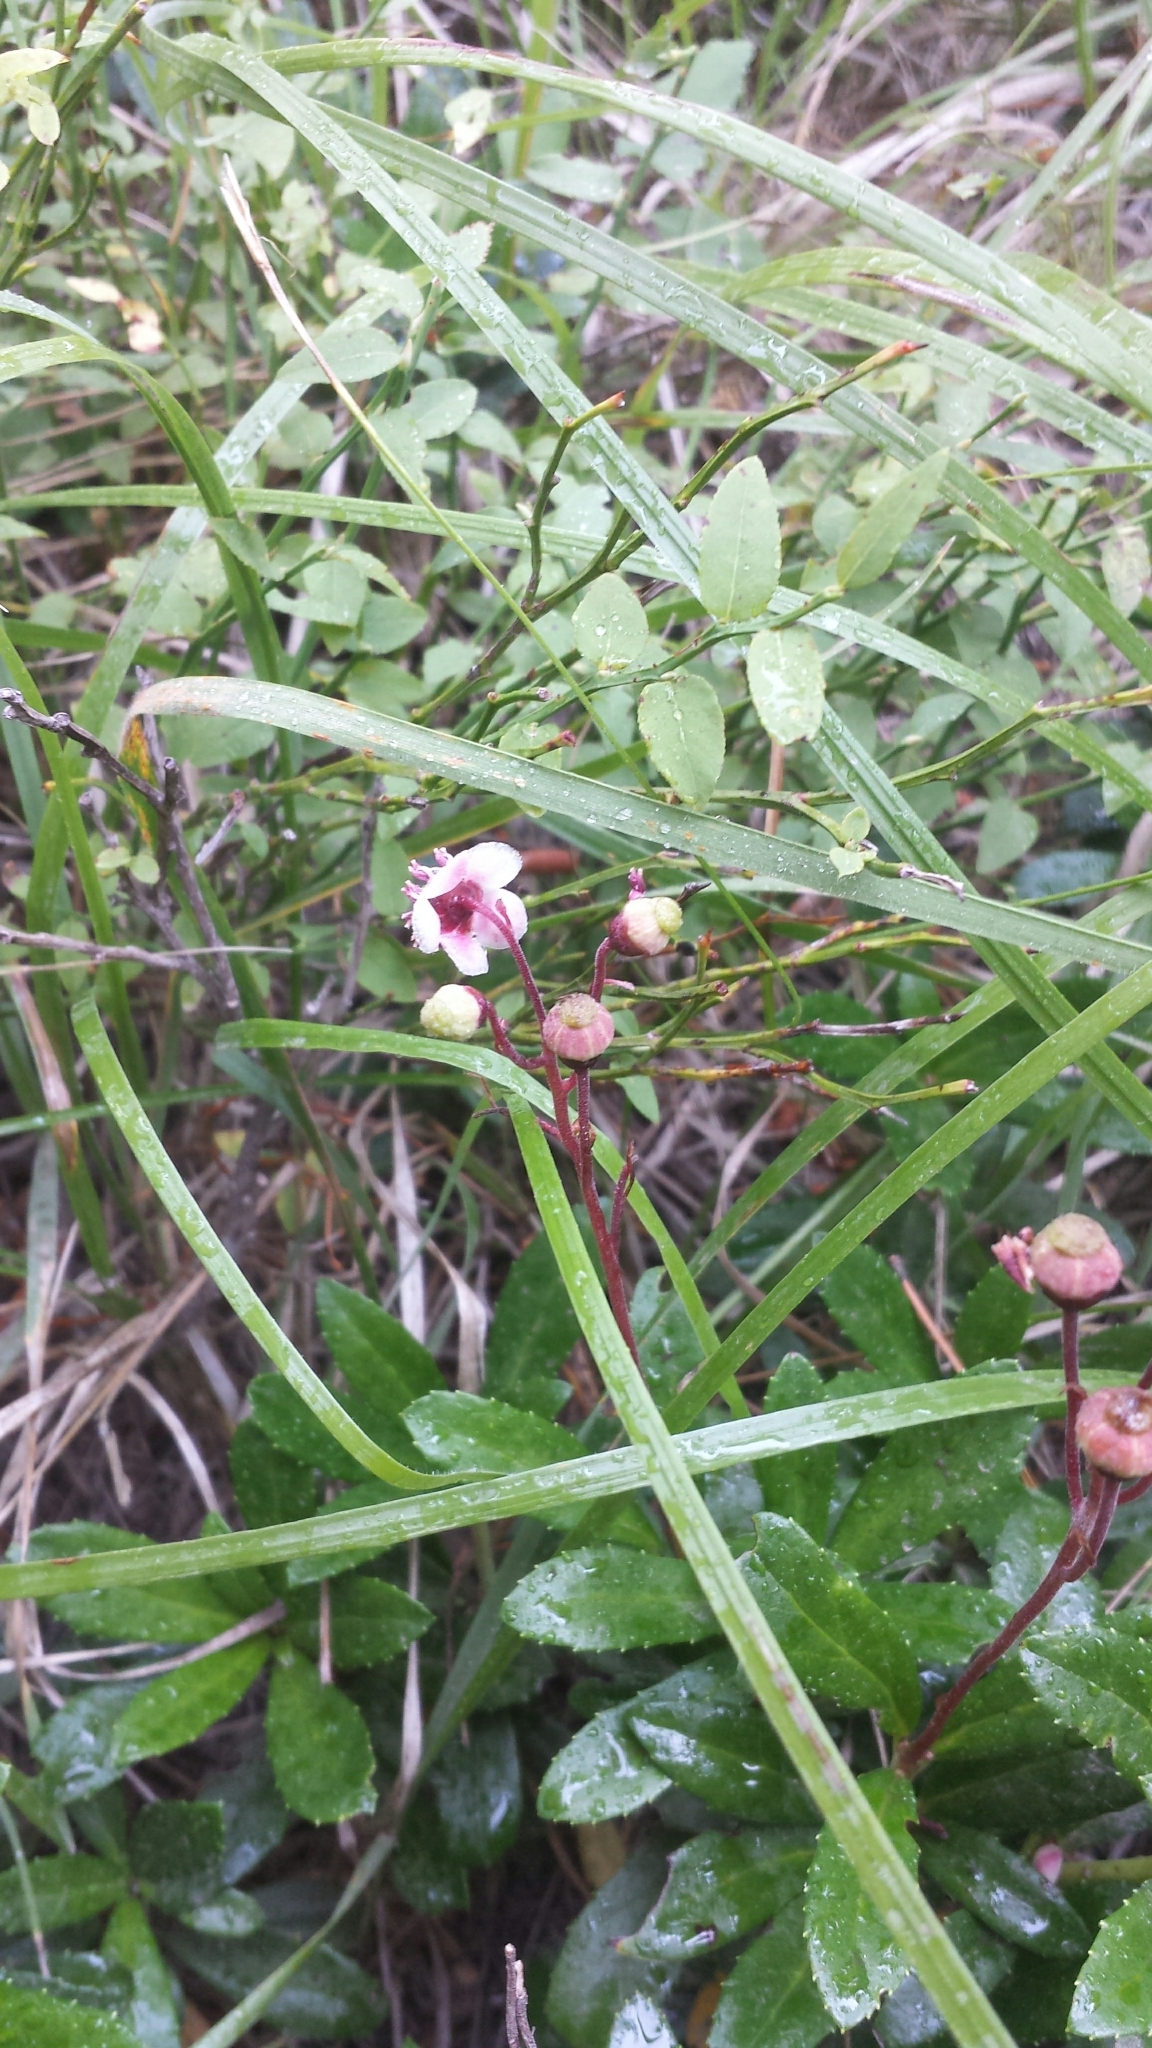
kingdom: Plantae
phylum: Tracheophyta
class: Magnoliopsida
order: Ericales
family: Ericaceae
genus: Chimaphila
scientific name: Chimaphila umbellata
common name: Pipsissewa
